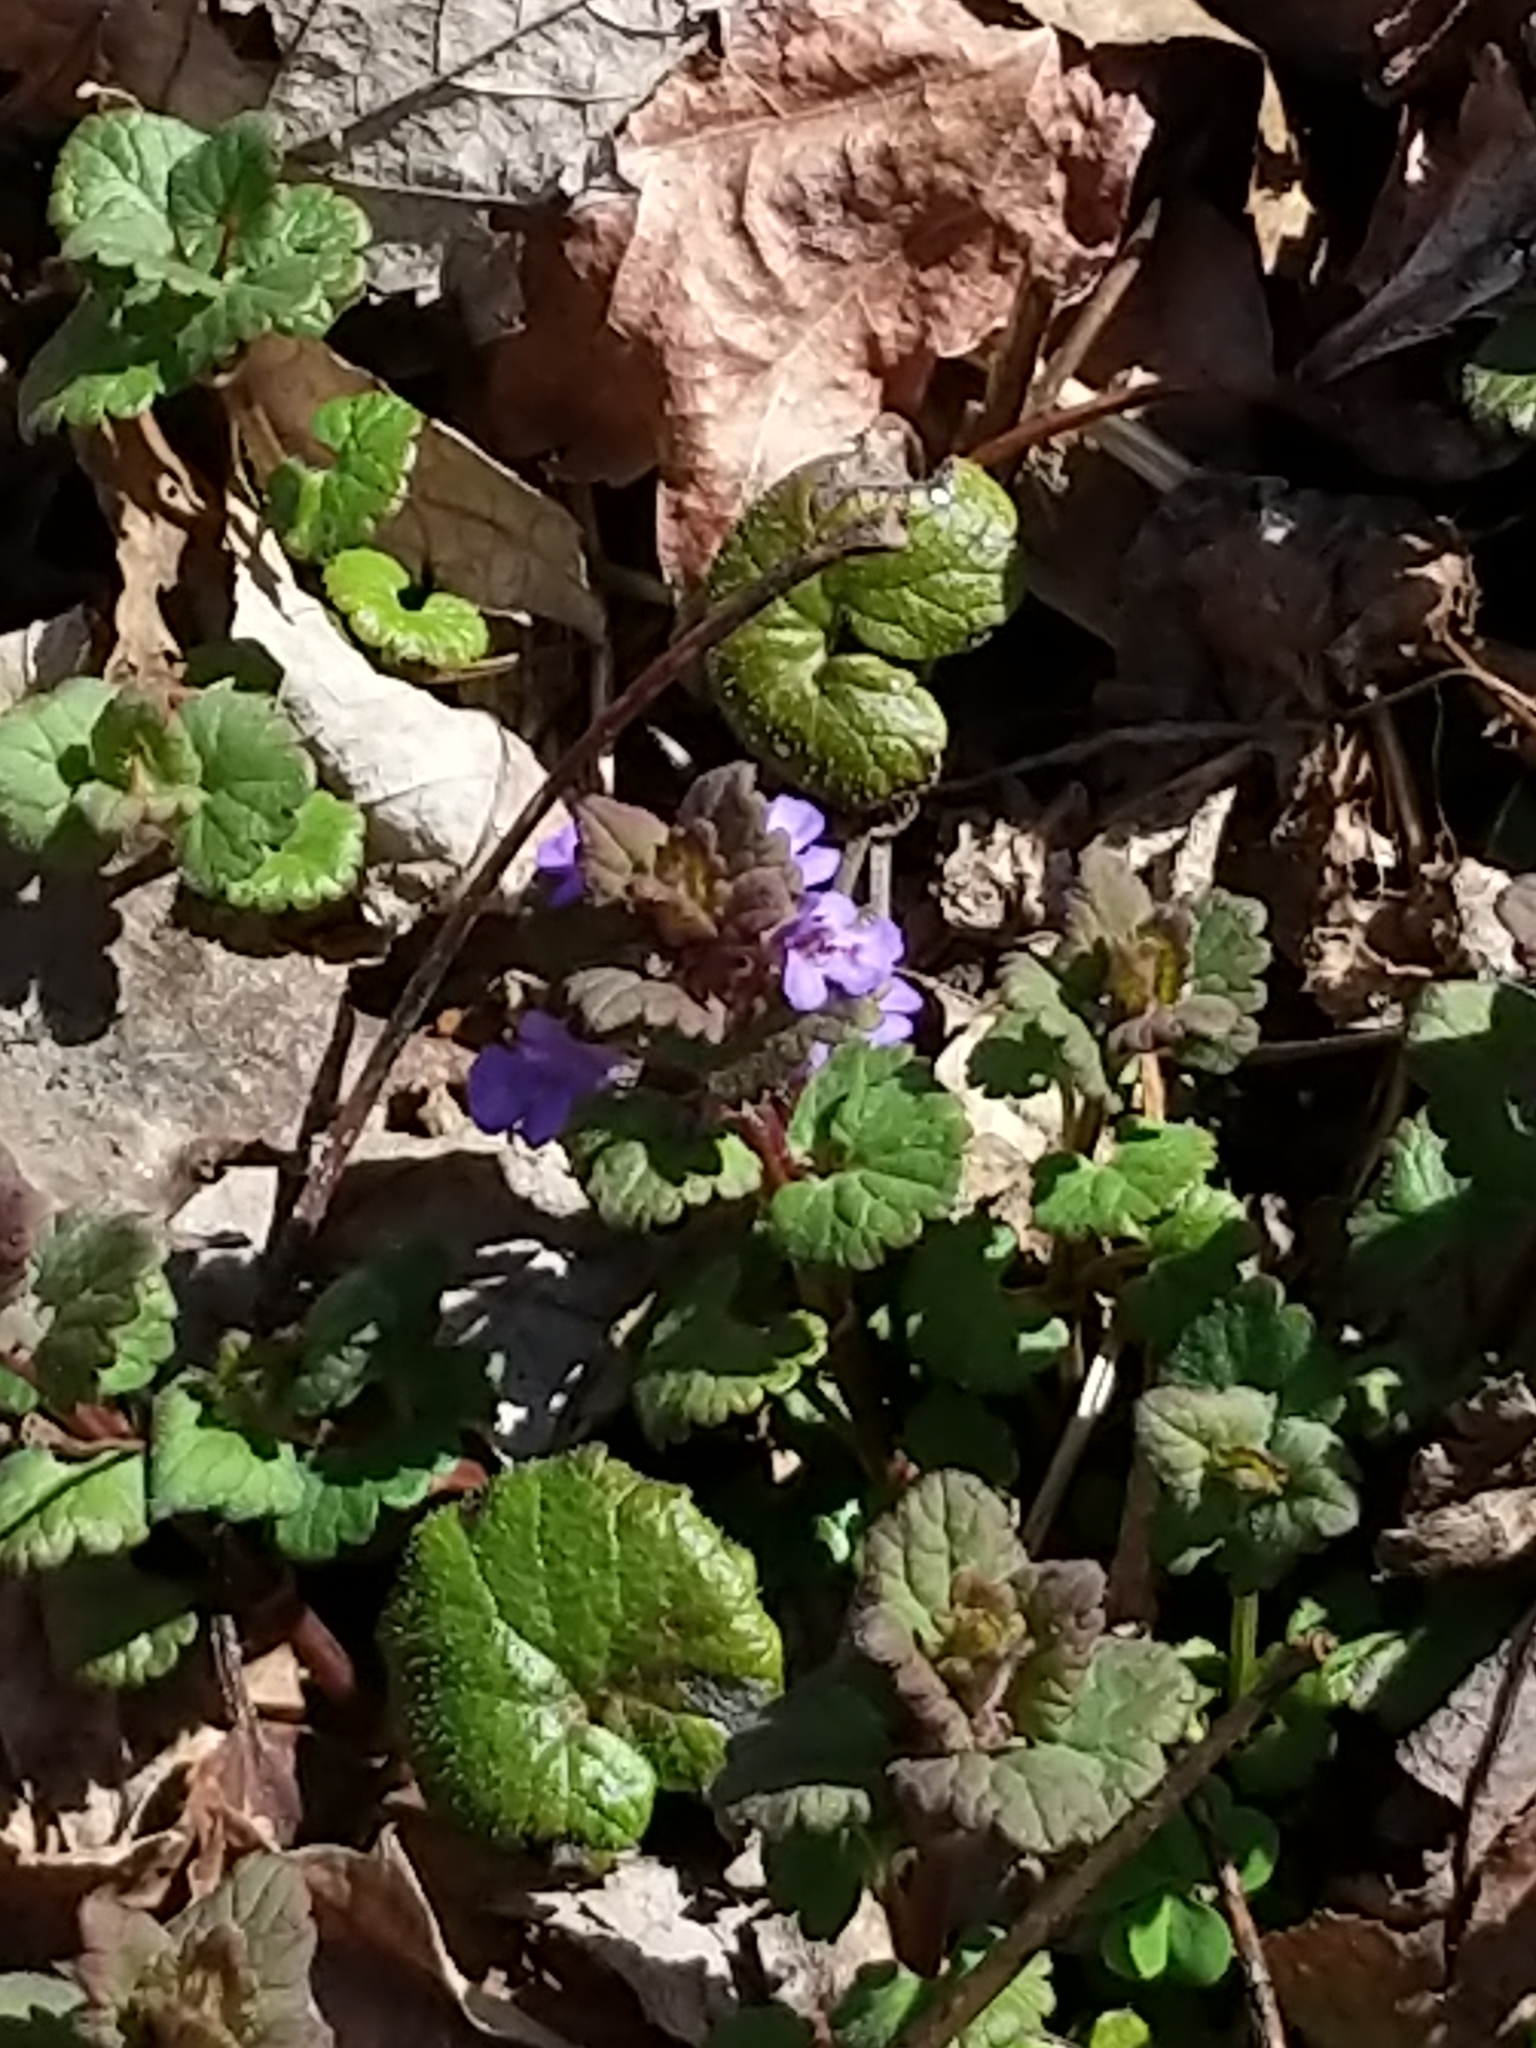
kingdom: Plantae
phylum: Tracheophyta
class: Magnoliopsida
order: Lamiales
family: Lamiaceae
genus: Glechoma
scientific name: Glechoma hederacea
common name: Ground ivy
